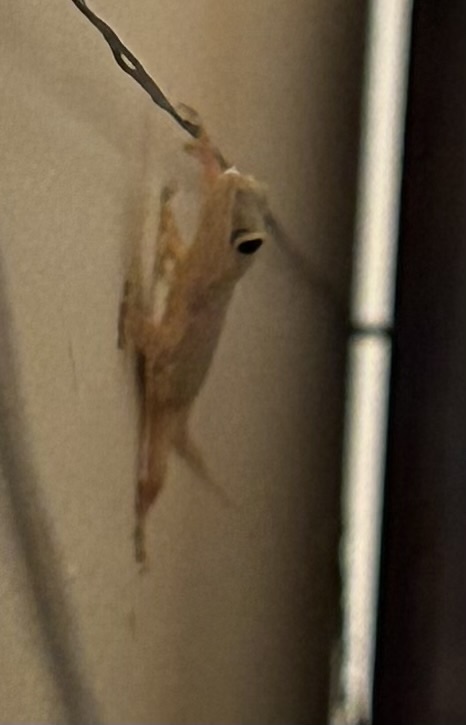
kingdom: Animalia
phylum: Chordata
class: Squamata
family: Gekkonidae
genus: Hemidactylus
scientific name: Hemidactylus platyurus
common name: Flat-tailed house gecko
